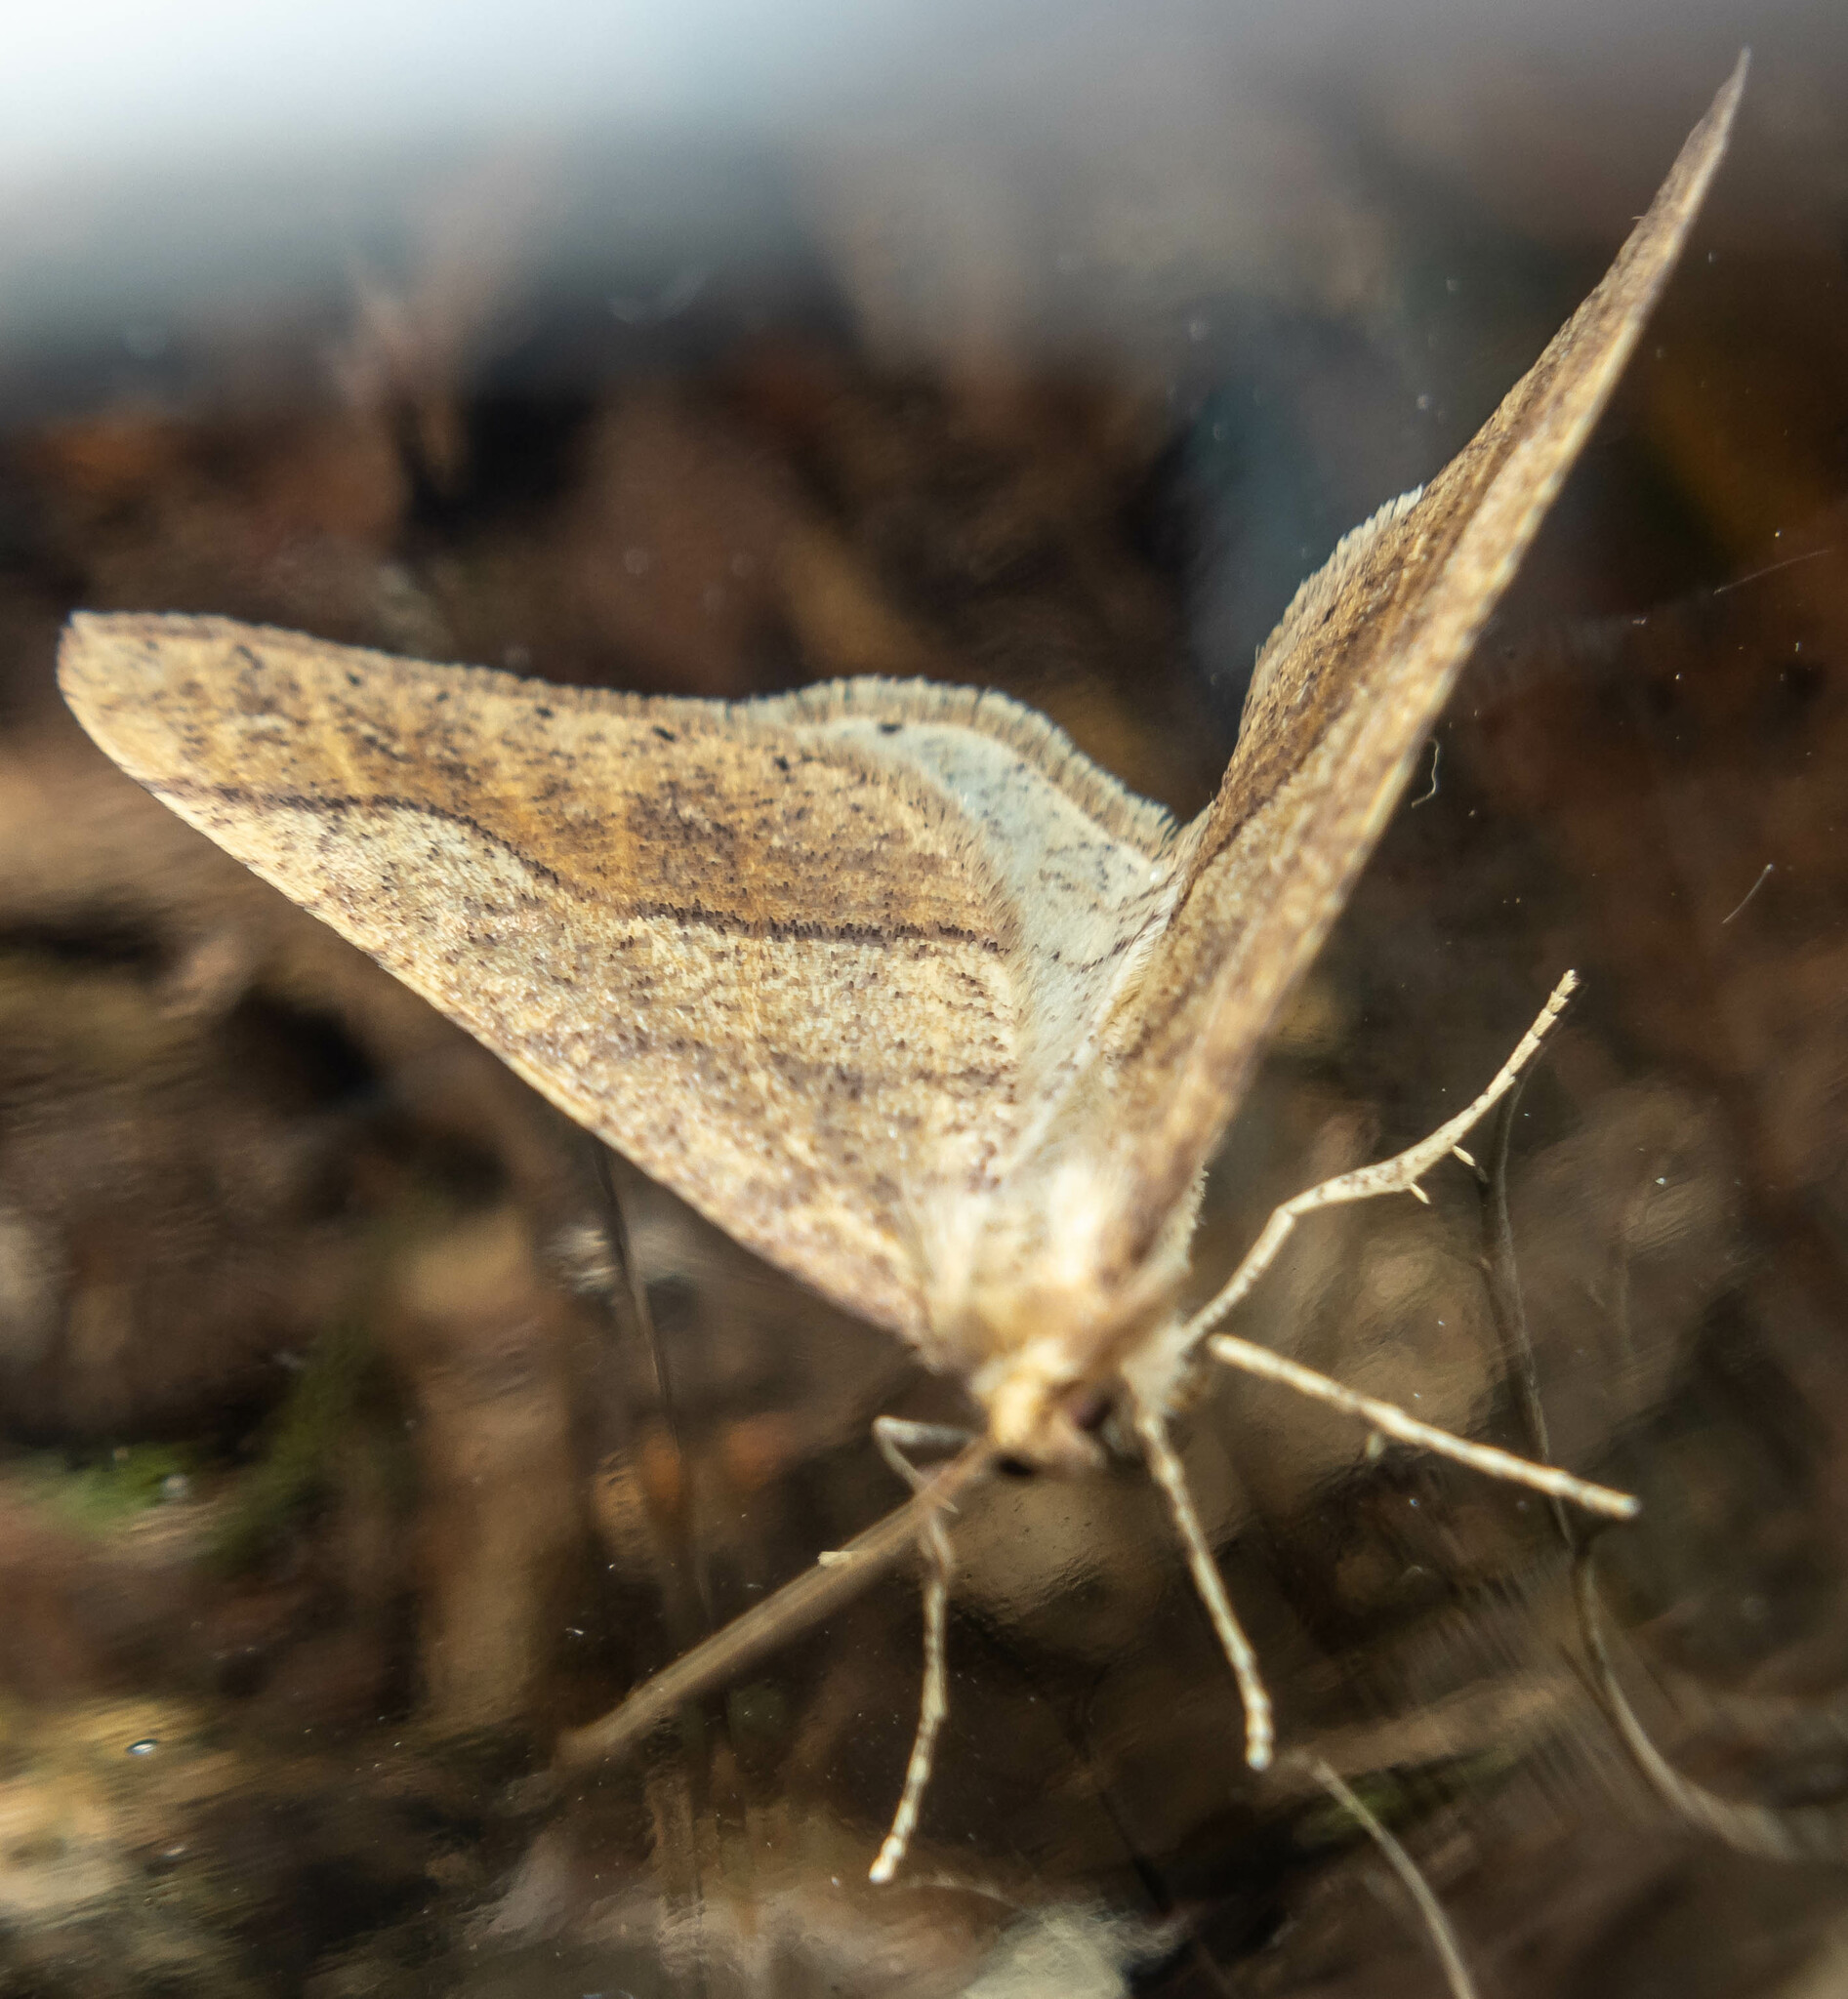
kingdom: Animalia
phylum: Arthropoda
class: Insecta
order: Lepidoptera
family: Geometridae
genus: Agriopis
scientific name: Agriopis marginaria
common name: Dotted border
